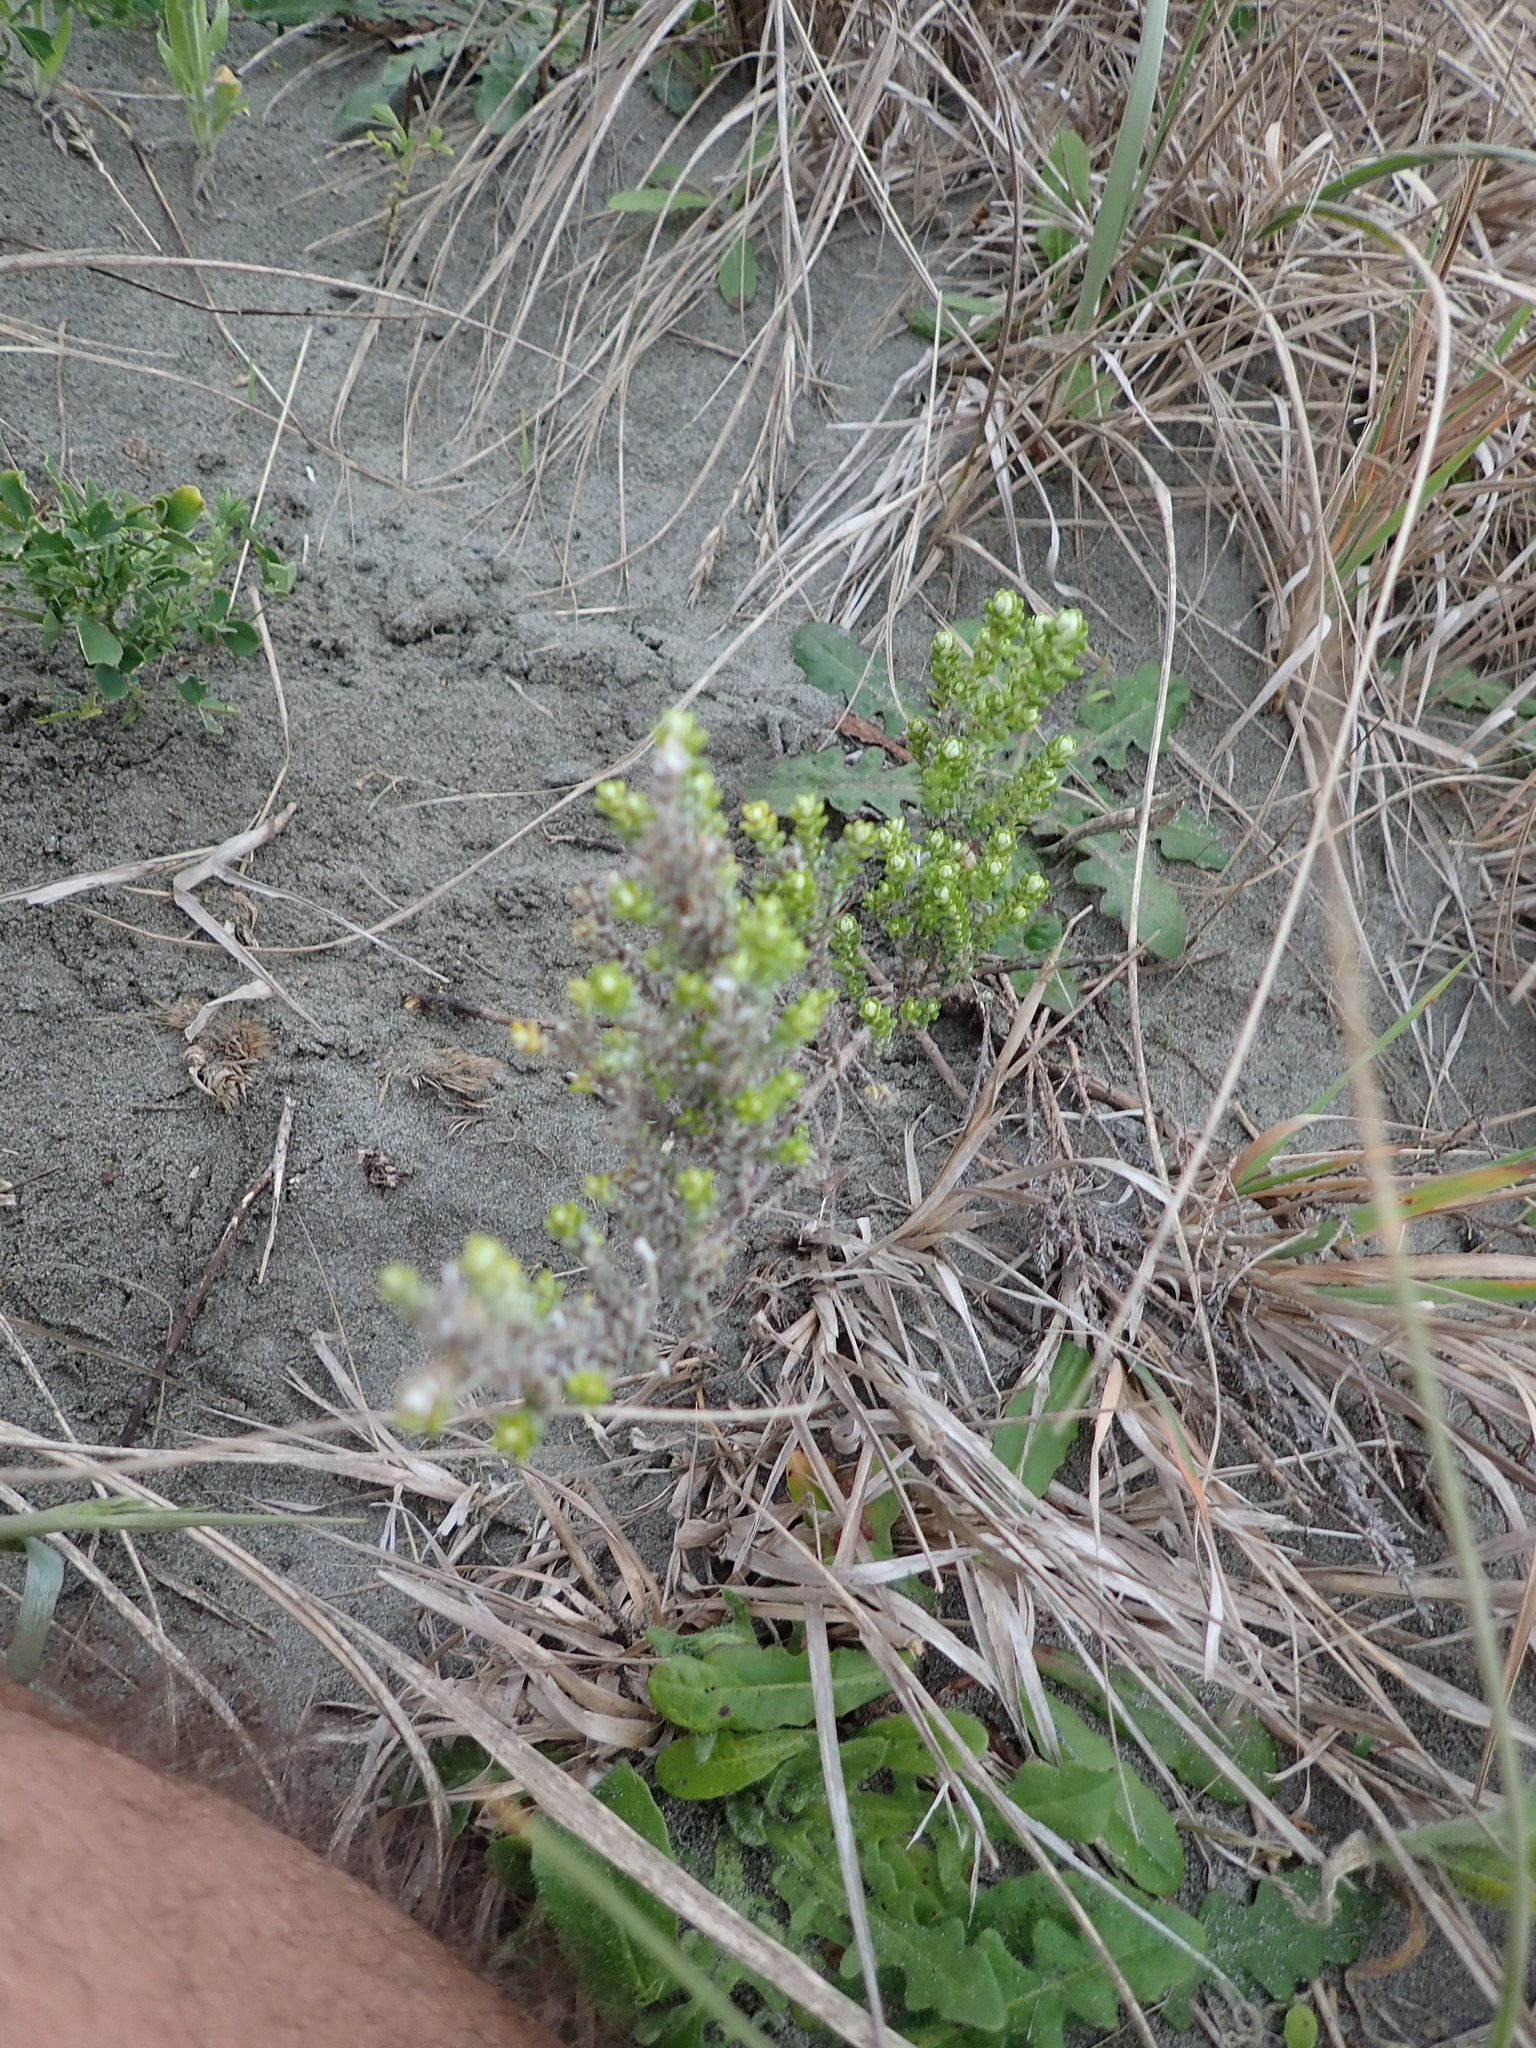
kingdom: Plantae
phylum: Tracheophyta
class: Magnoliopsida
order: Asterales
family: Asteraceae
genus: Ozothamnus
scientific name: Ozothamnus leptophyllus
